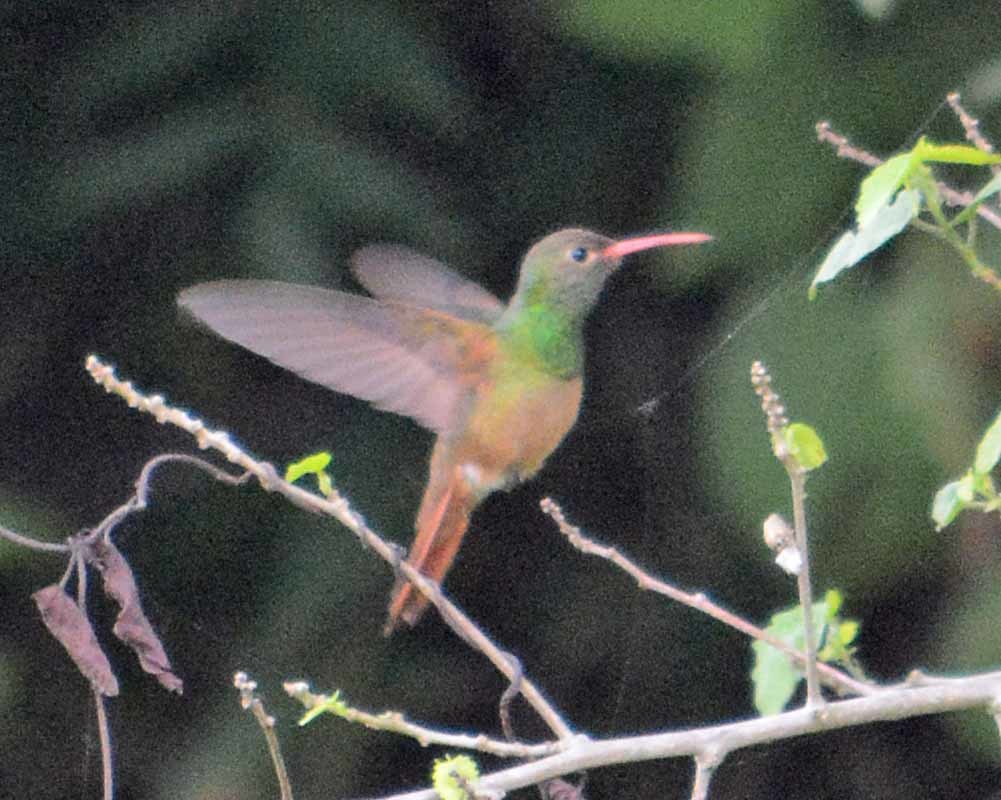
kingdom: Animalia
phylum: Chordata
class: Aves
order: Apodiformes
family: Trochilidae
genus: Amazilia
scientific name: Amazilia yucatanensis
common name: Buff-bellied hummingbird
